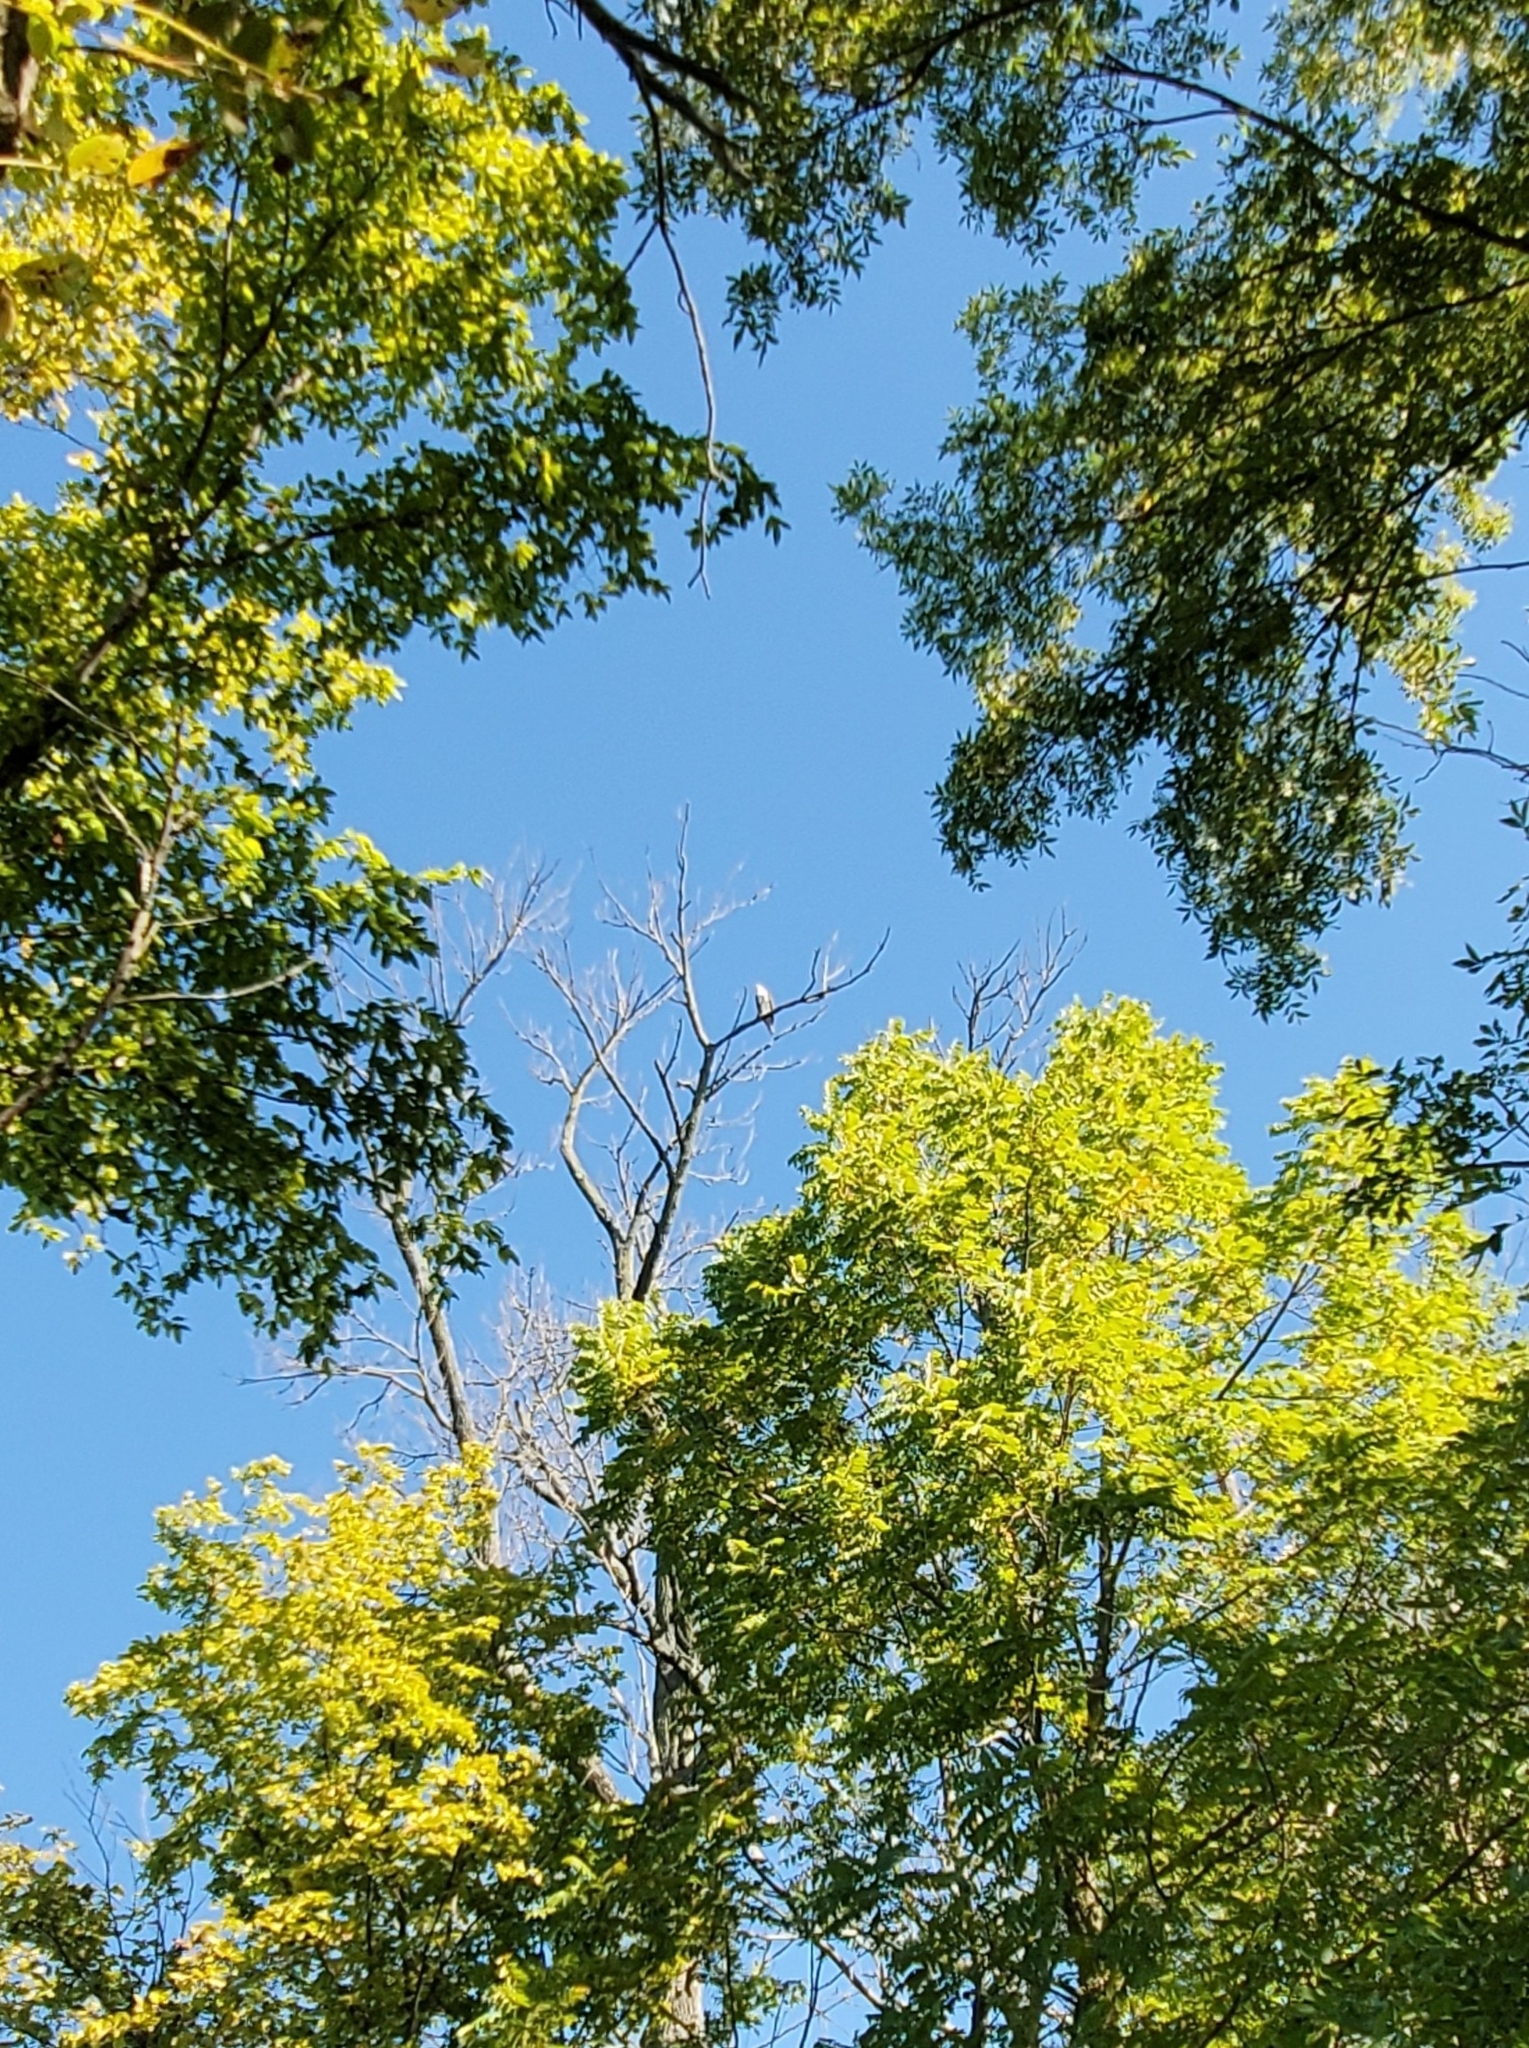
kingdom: Animalia
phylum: Chordata
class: Aves
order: Accipitriformes
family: Pandionidae
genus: Pandion
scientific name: Pandion haliaetus
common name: Osprey
